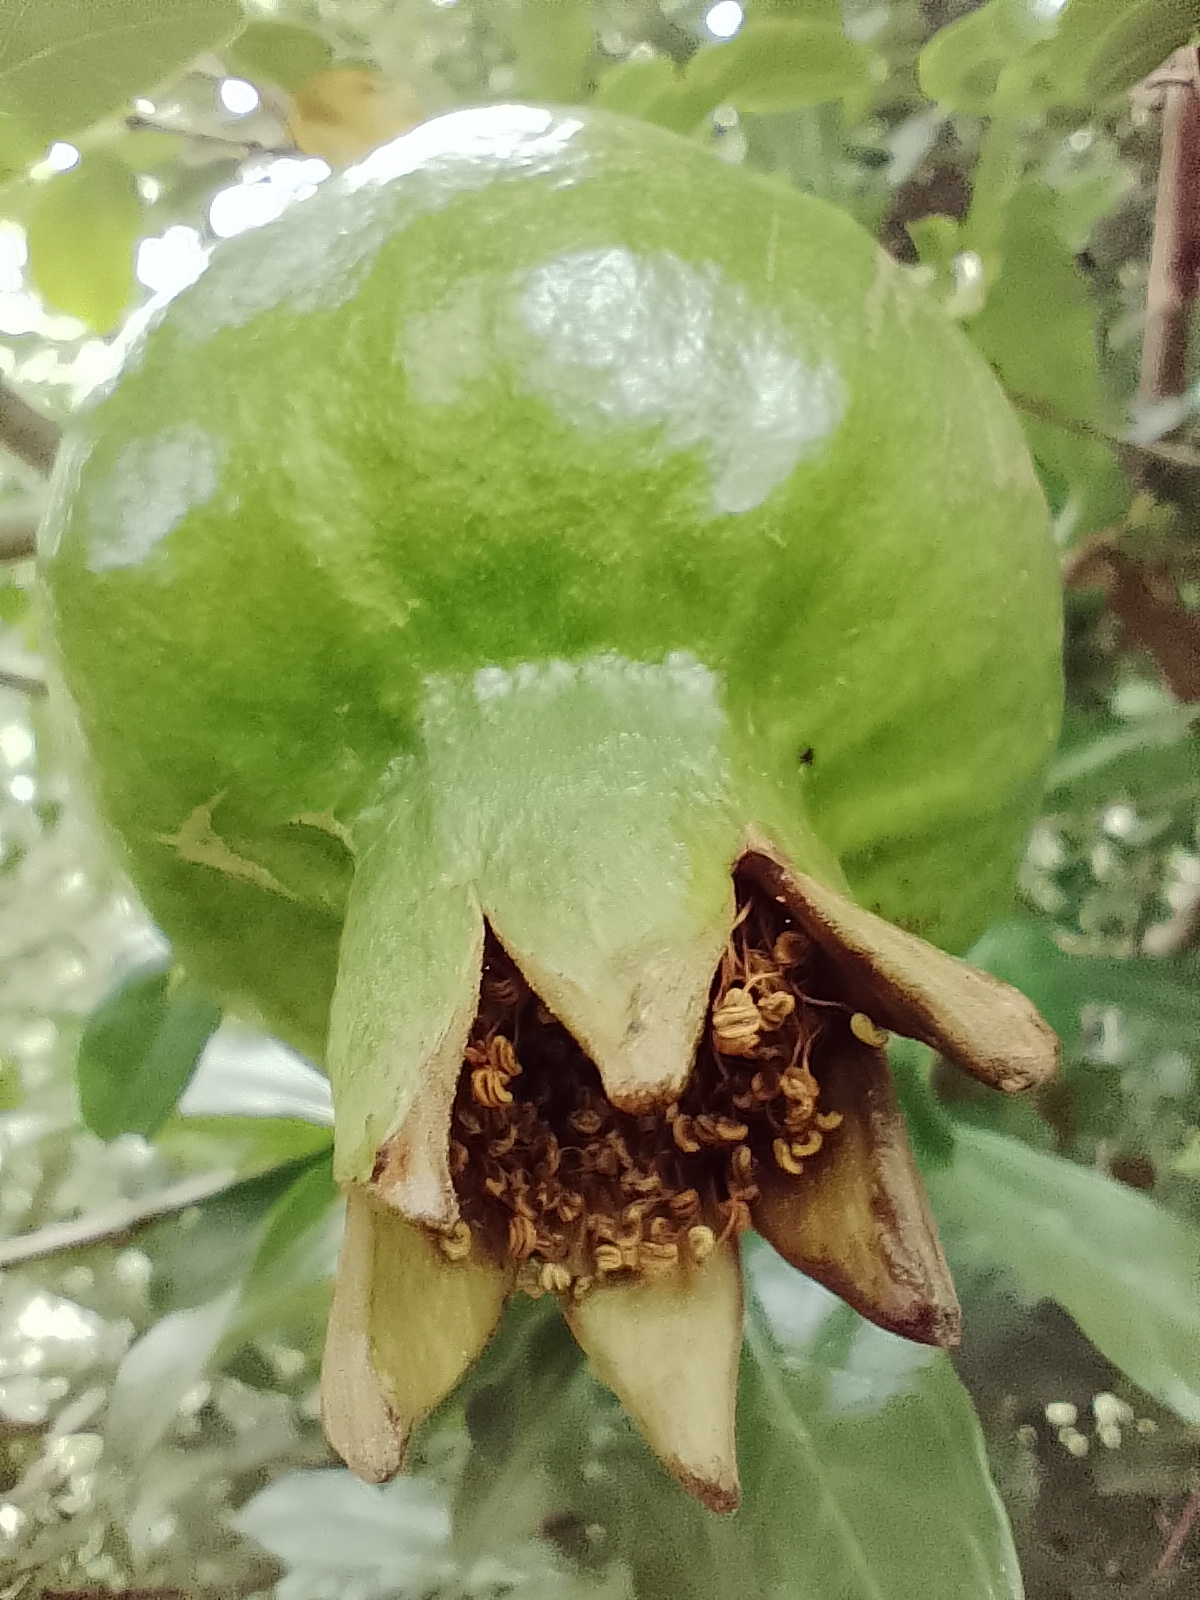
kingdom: Plantae
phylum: Tracheophyta
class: Magnoliopsida
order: Myrtales
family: Lythraceae
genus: Punica
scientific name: Punica granatum
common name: Pomegranate
